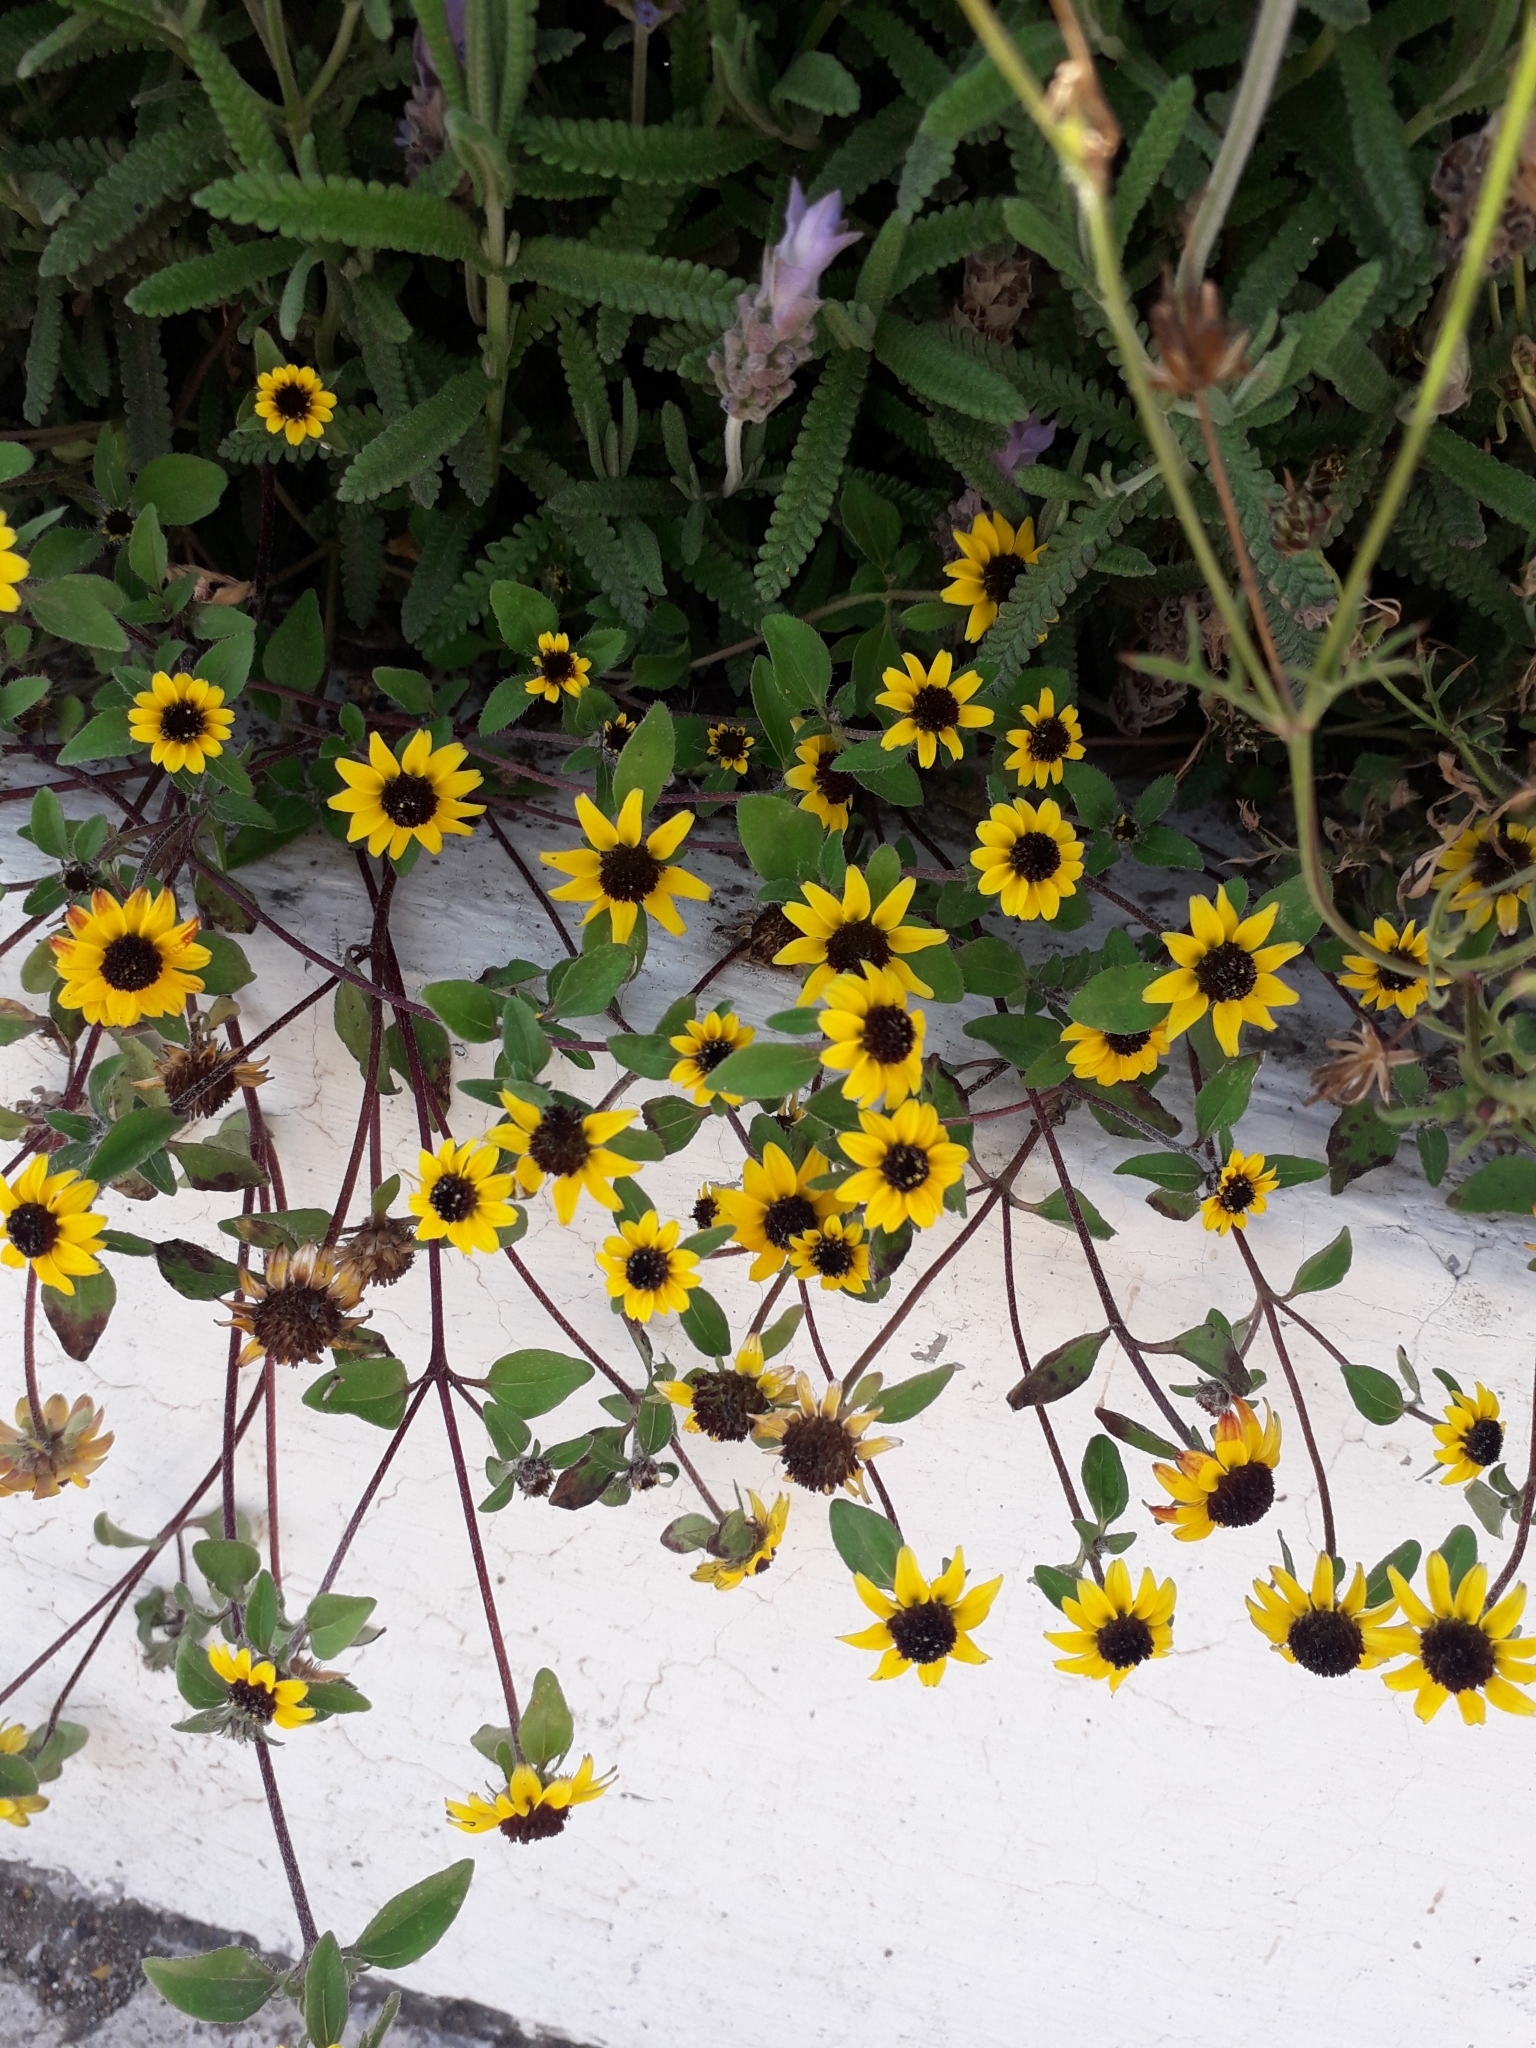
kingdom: Plantae
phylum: Tracheophyta
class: Magnoliopsida
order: Asterales
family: Asteraceae
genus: Sanvitalia
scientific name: Sanvitalia procumbens
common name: Mexican creeping zinnia
